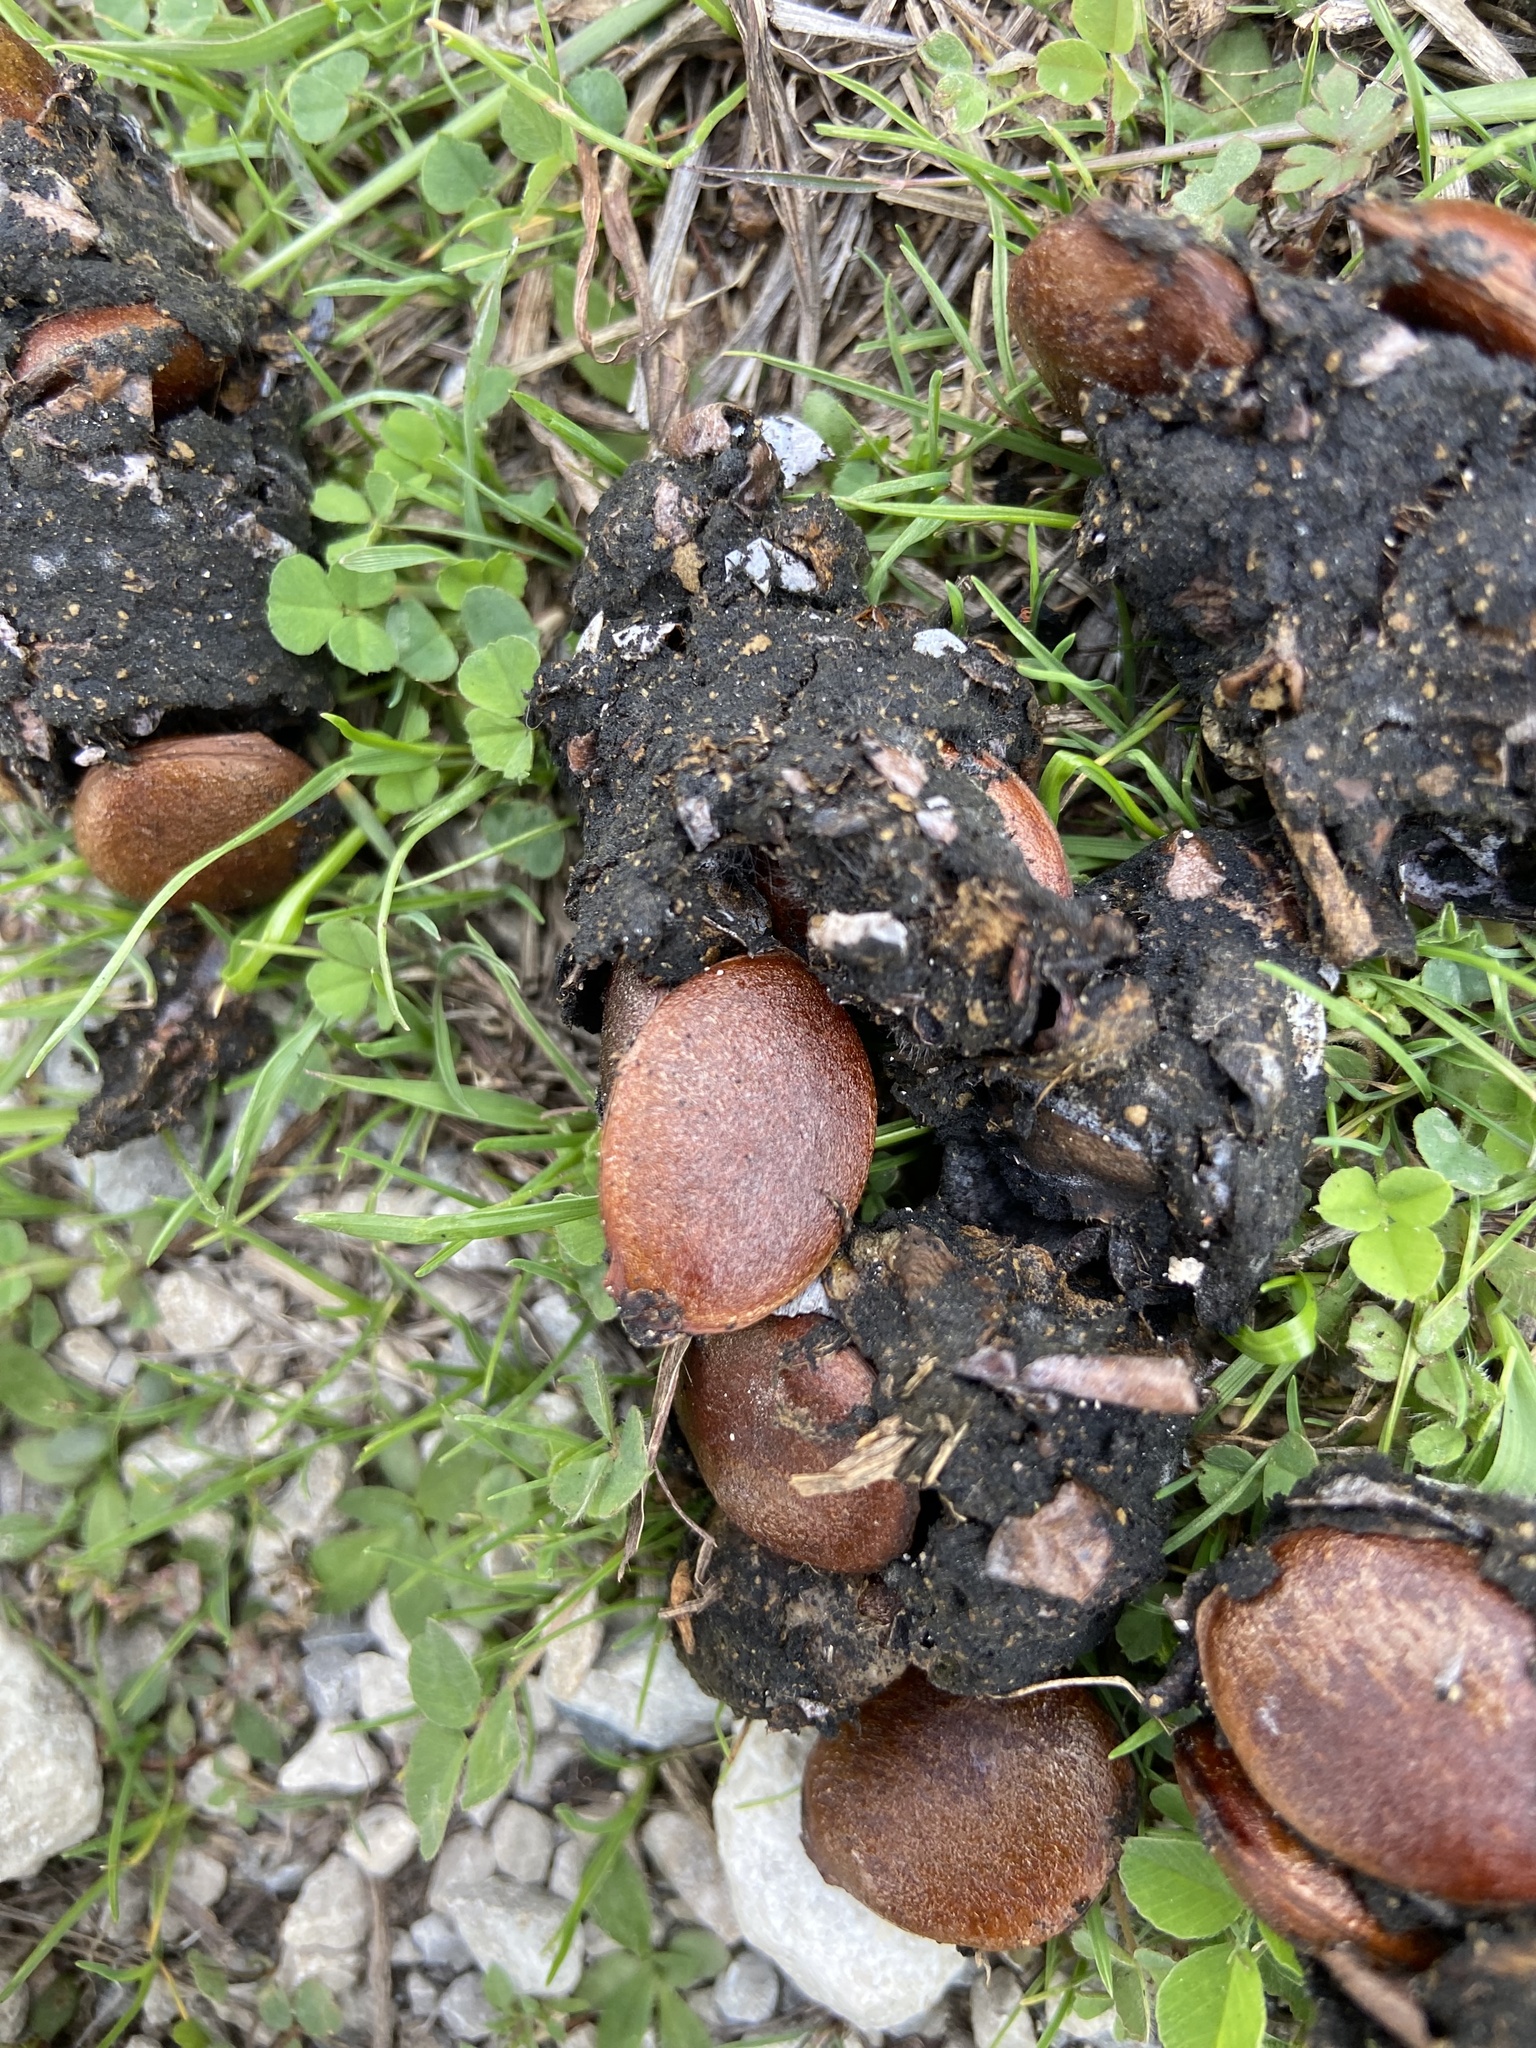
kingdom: Plantae
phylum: Tracheophyta
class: Magnoliopsida
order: Ericales
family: Ebenaceae
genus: Diospyros
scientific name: Diospyros virginiana
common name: Persimmon
